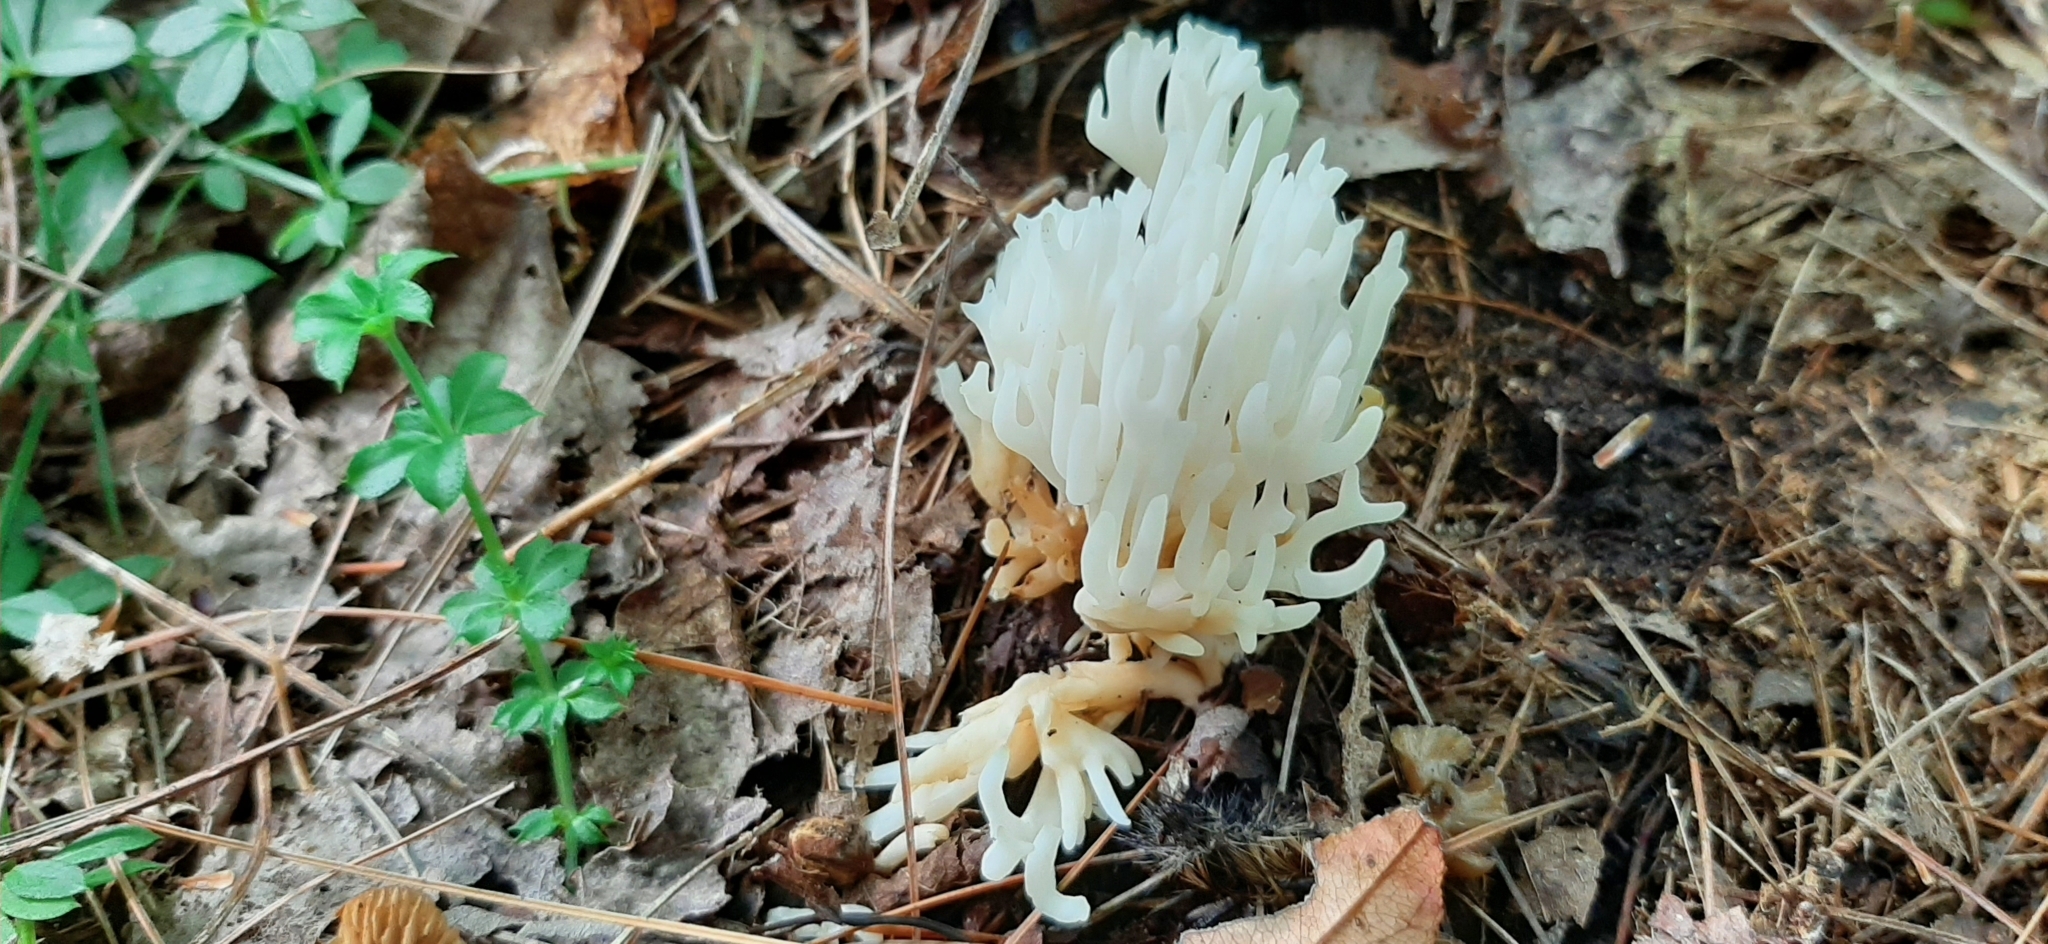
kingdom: Fungi
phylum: Basidiomycota
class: Agaricomycetes
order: Agaricales
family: Clavariaceae
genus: Ramariopsis
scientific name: Ramariopsis kunzei
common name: Ivory coral
